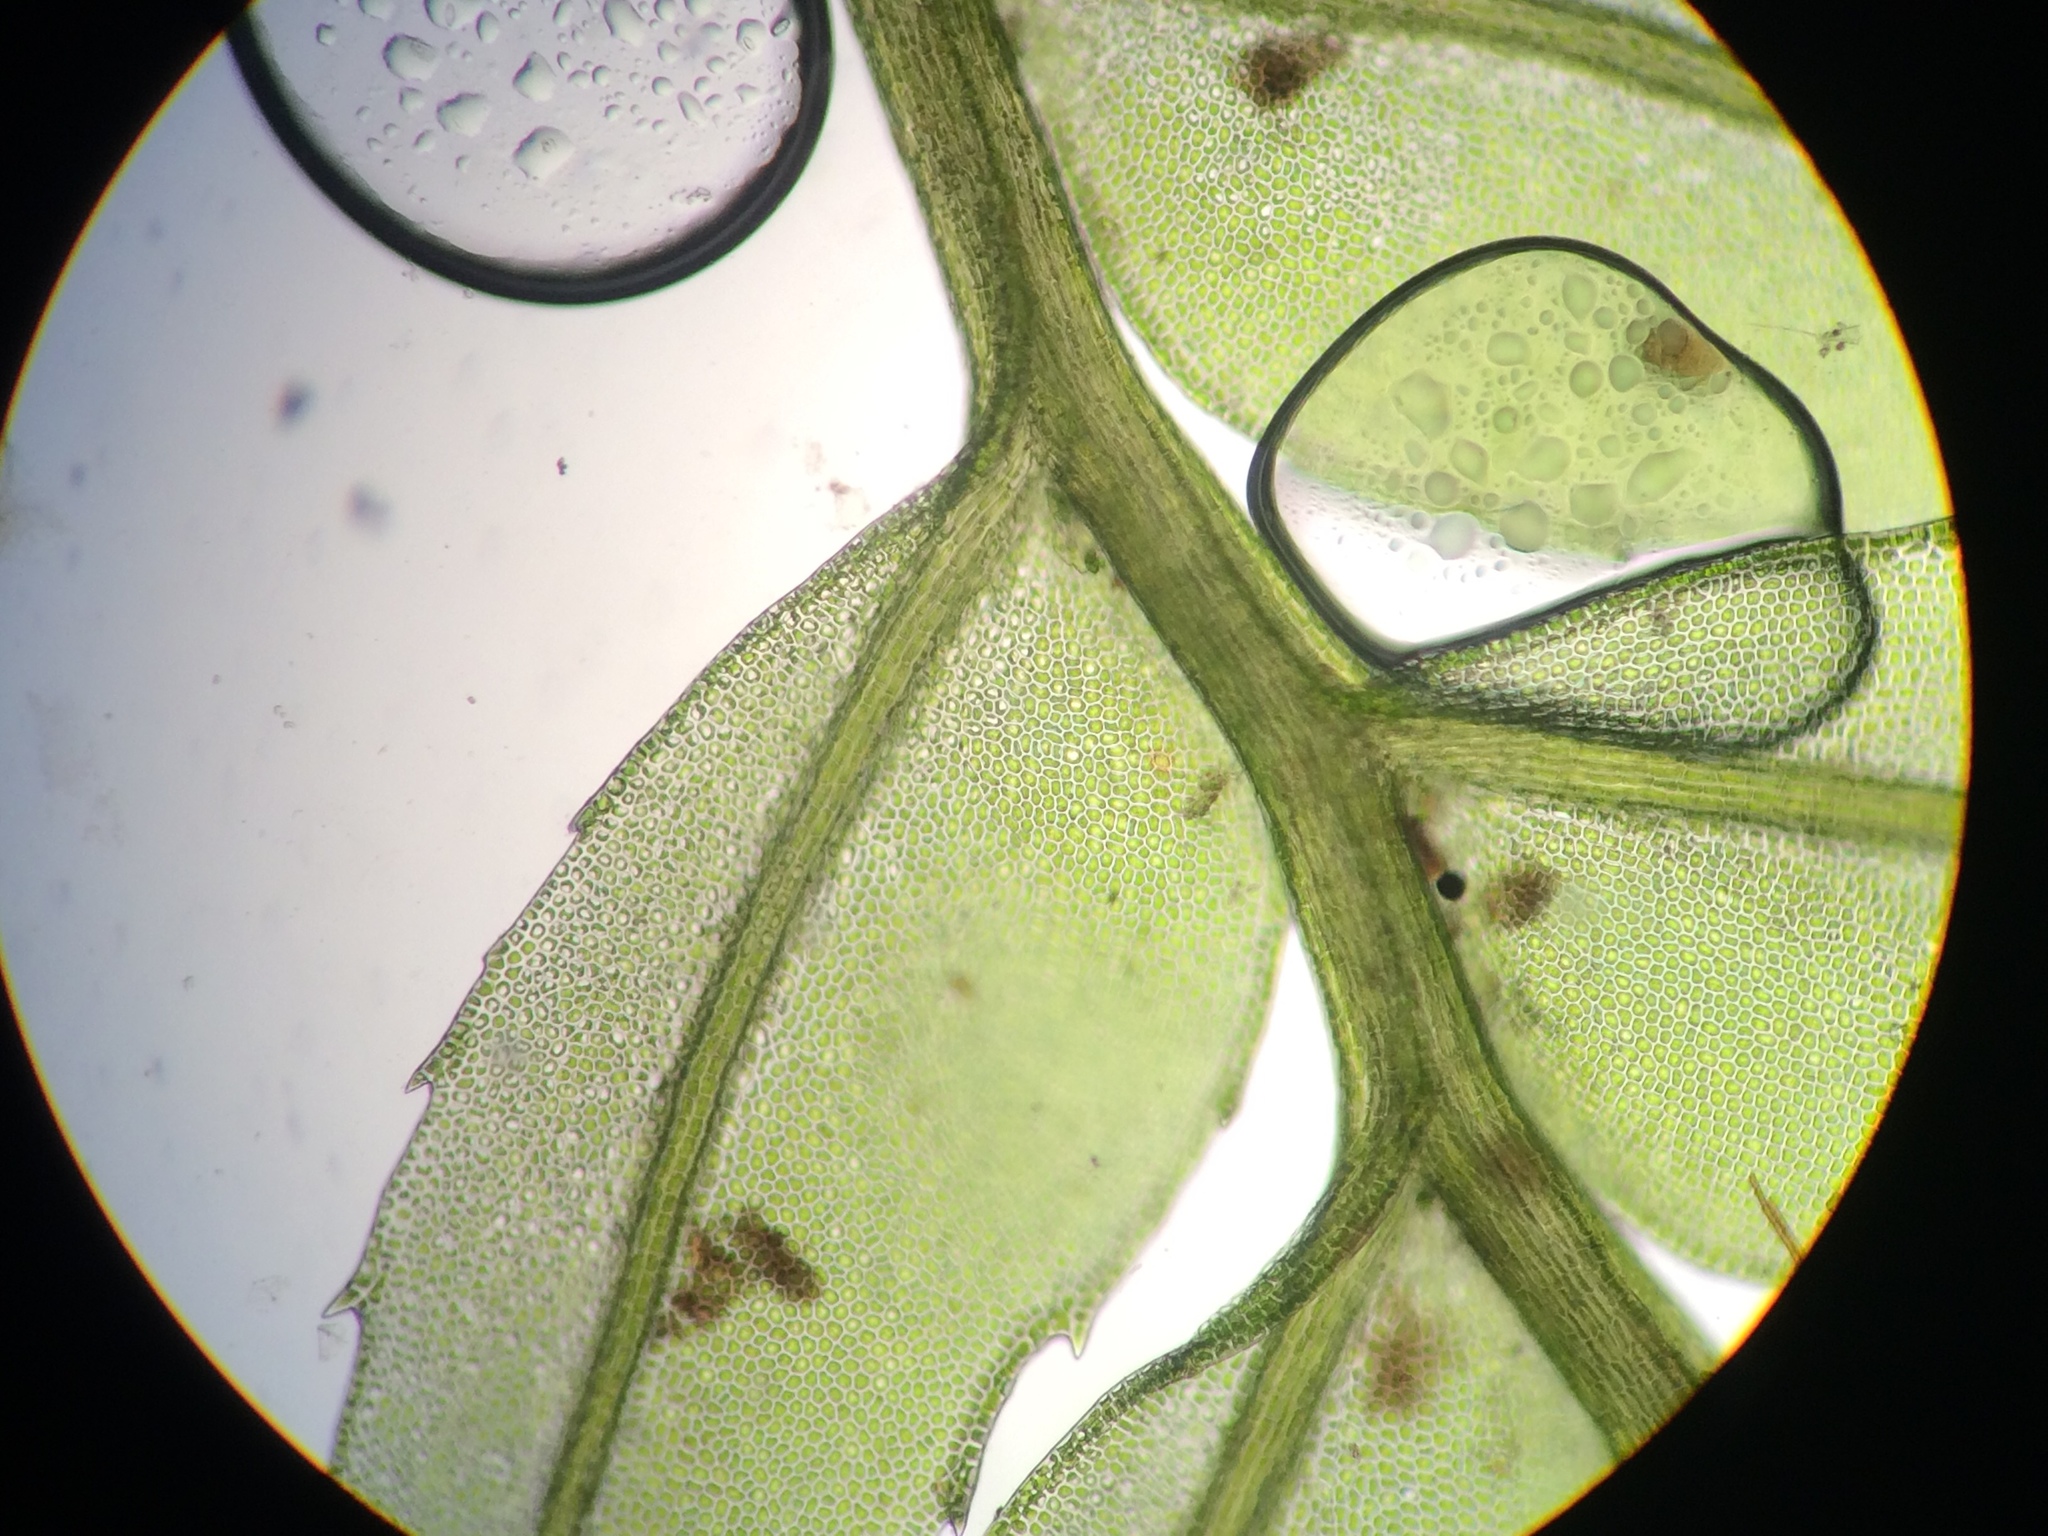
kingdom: Plantae
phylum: Bryophyta
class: Bryopsida
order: Aulacomniales
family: Aulacomniaceae
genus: Hymenodontopsis
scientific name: Hymenodontopsis bifaria
